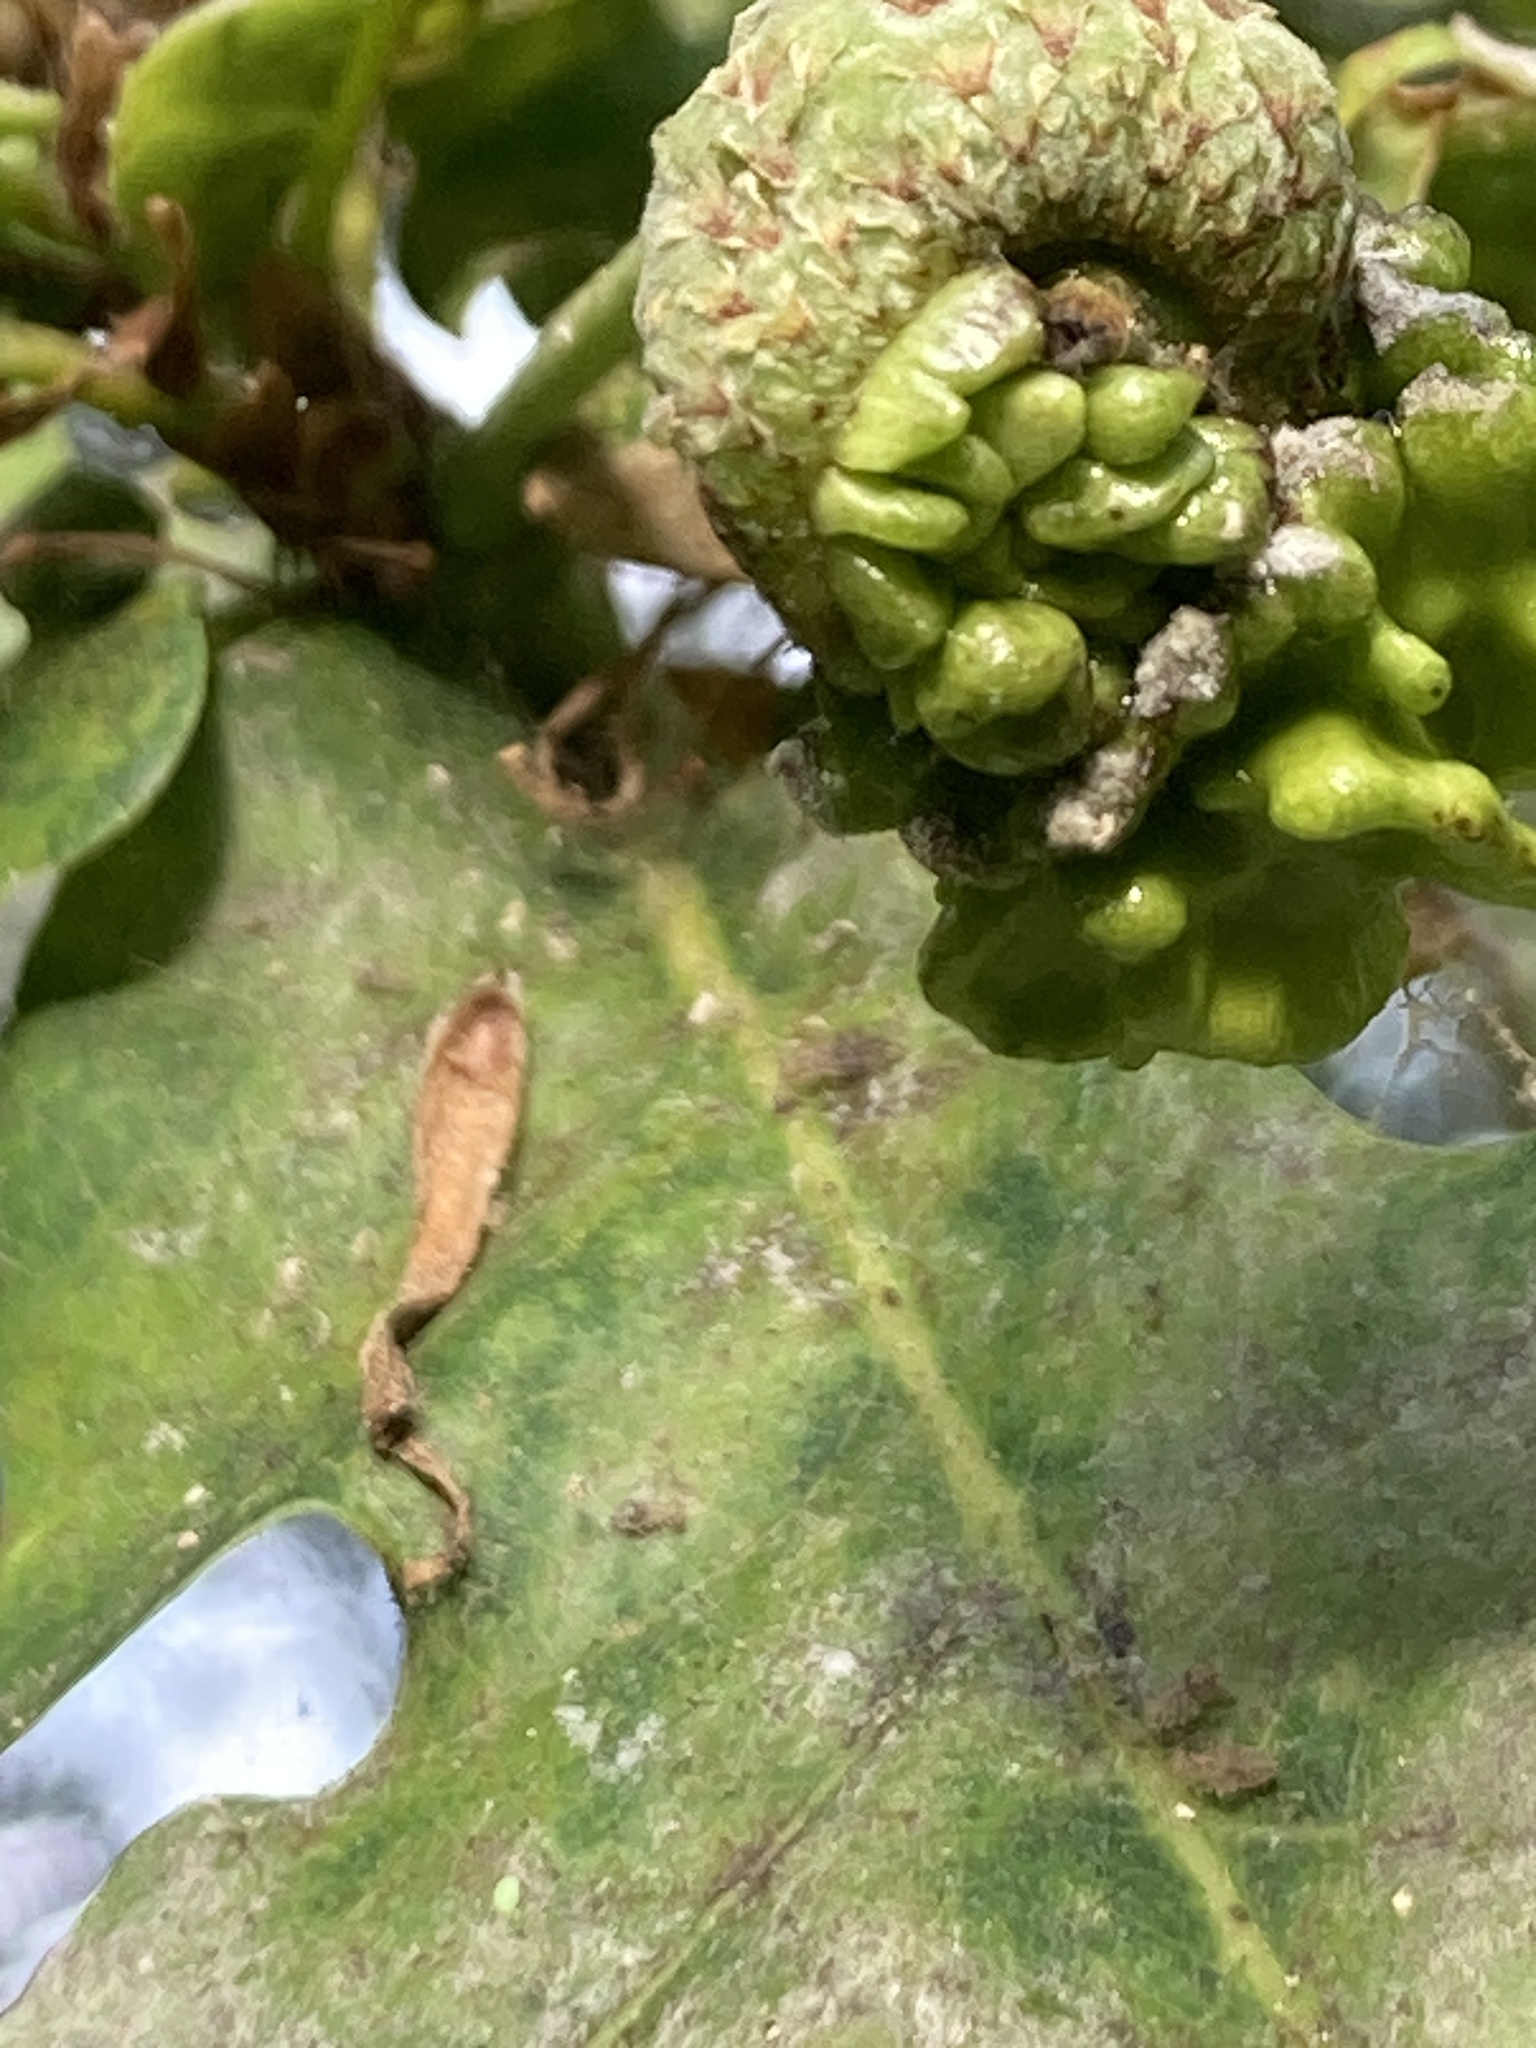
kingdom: Animalia
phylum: Arthropoda
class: Insecta
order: Hymenoptera
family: Cynipidae
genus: Andricus
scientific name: Andricus quercuscalicis
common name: Knopper gall
